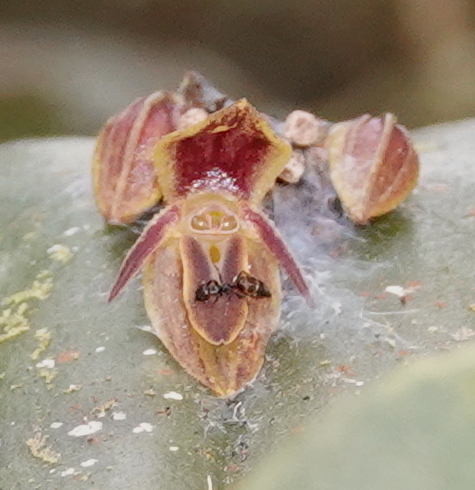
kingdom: Plantae
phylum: Tracheophyta
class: Liliopsida
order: Asparagales
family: Orchidaceae
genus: Pleurothallis
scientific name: Pleurothallis matudana
